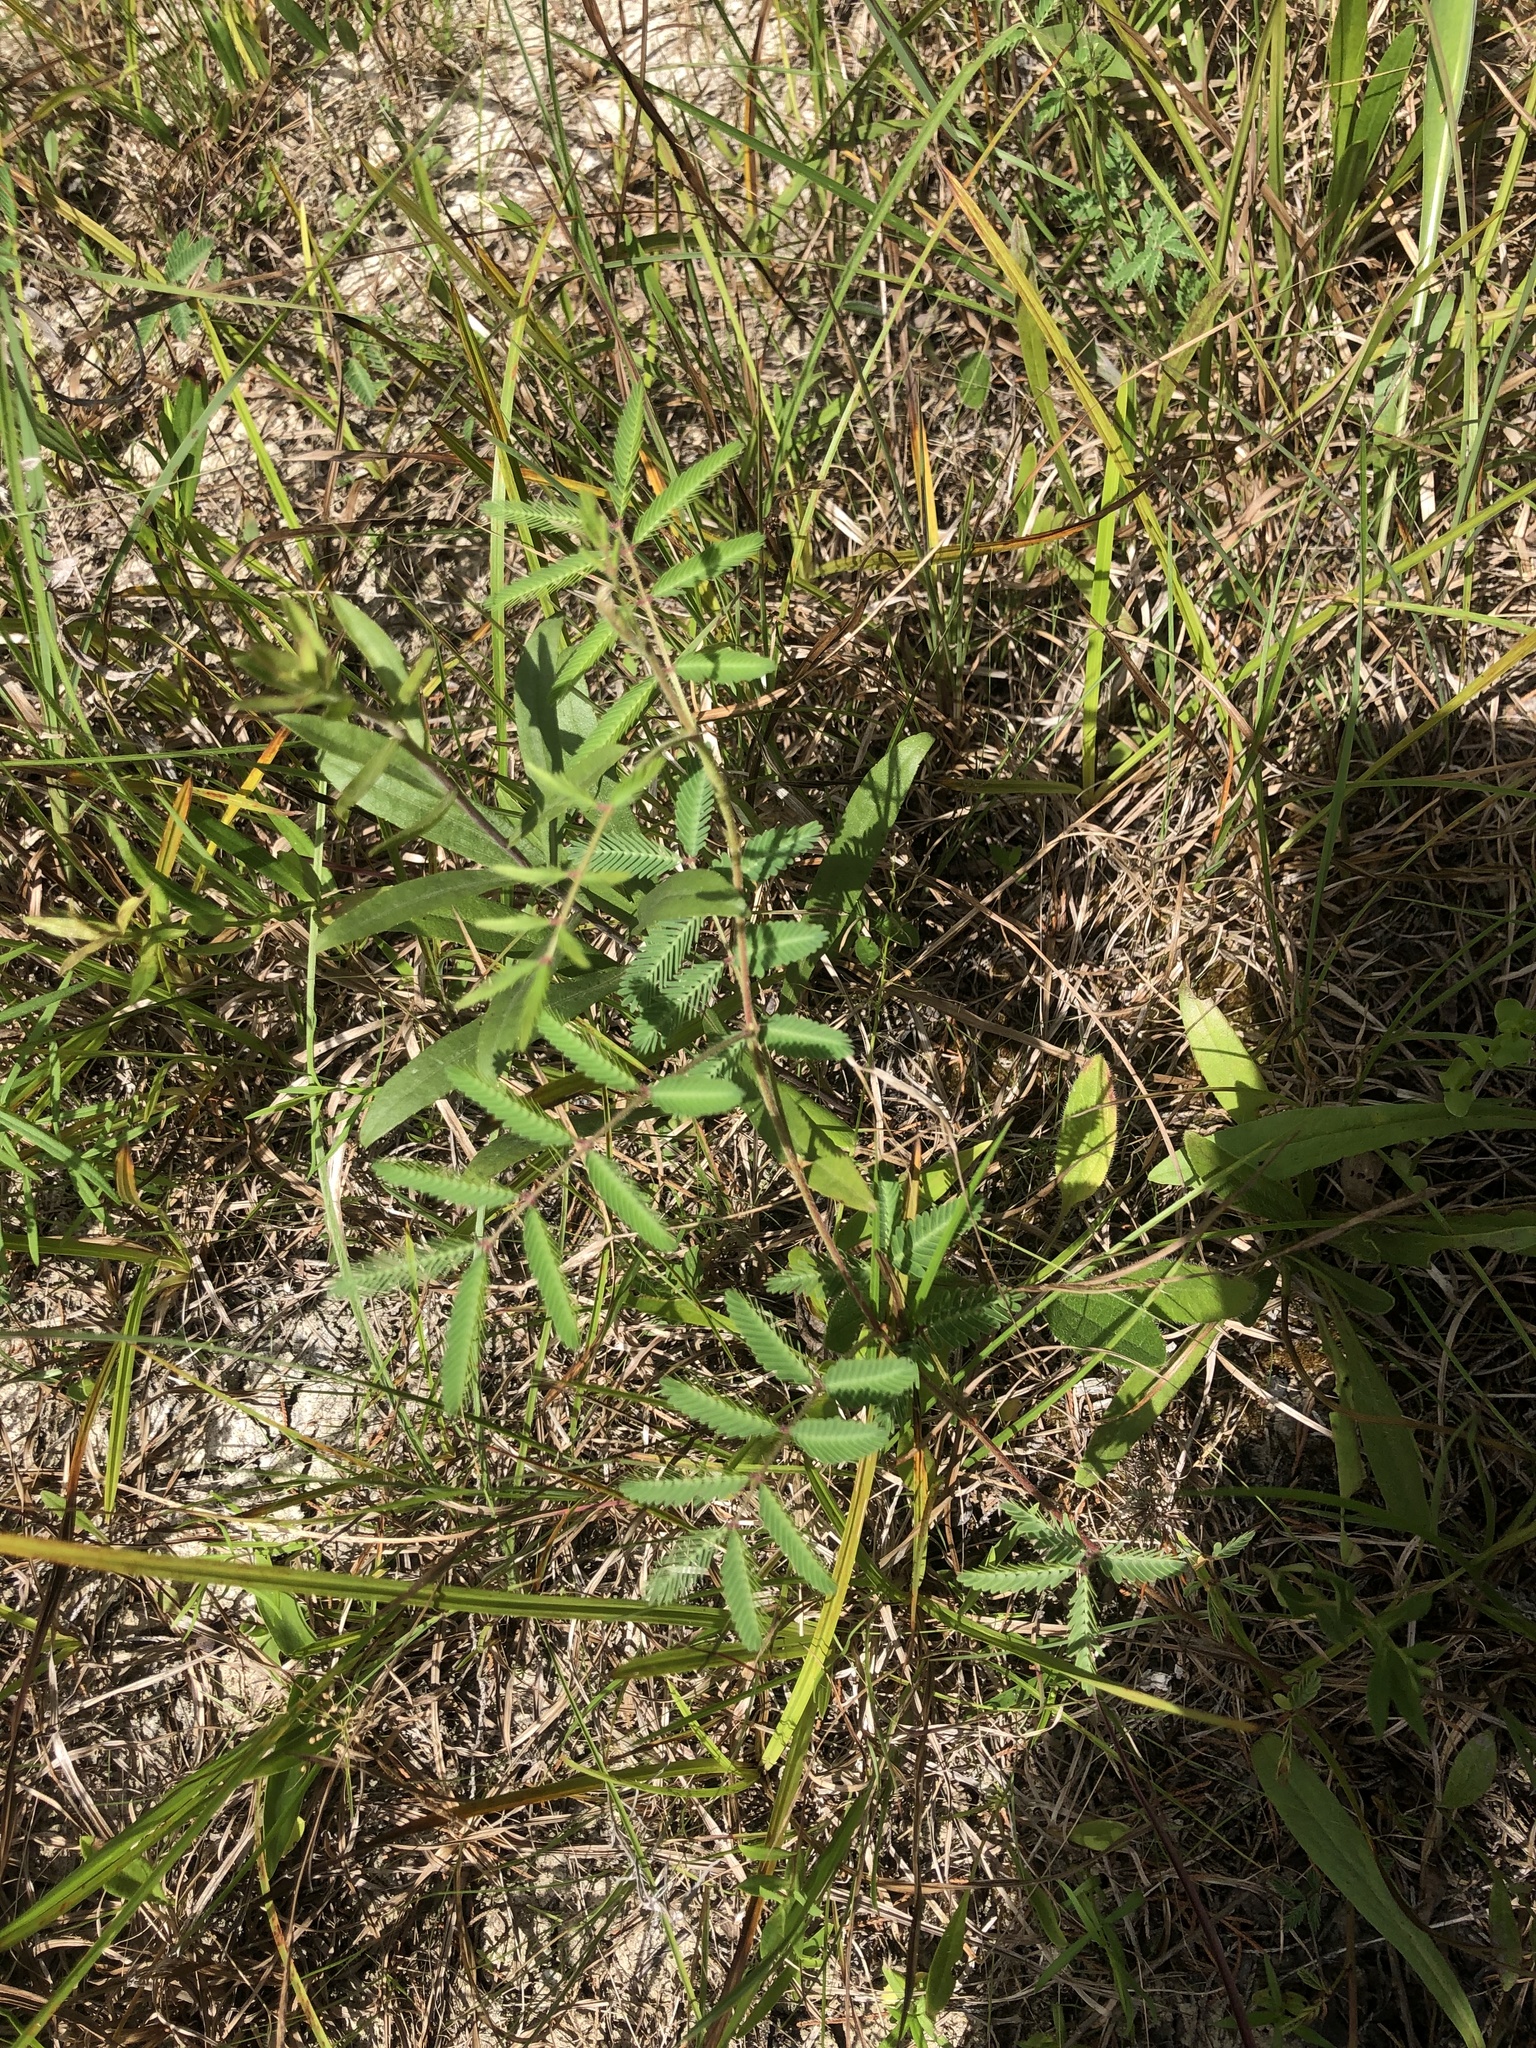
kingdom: Plantae
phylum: Tracheophyta
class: Magnoliopsida
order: Fabales
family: Fabaceae
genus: Neptunia
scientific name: Neptunia lutea
